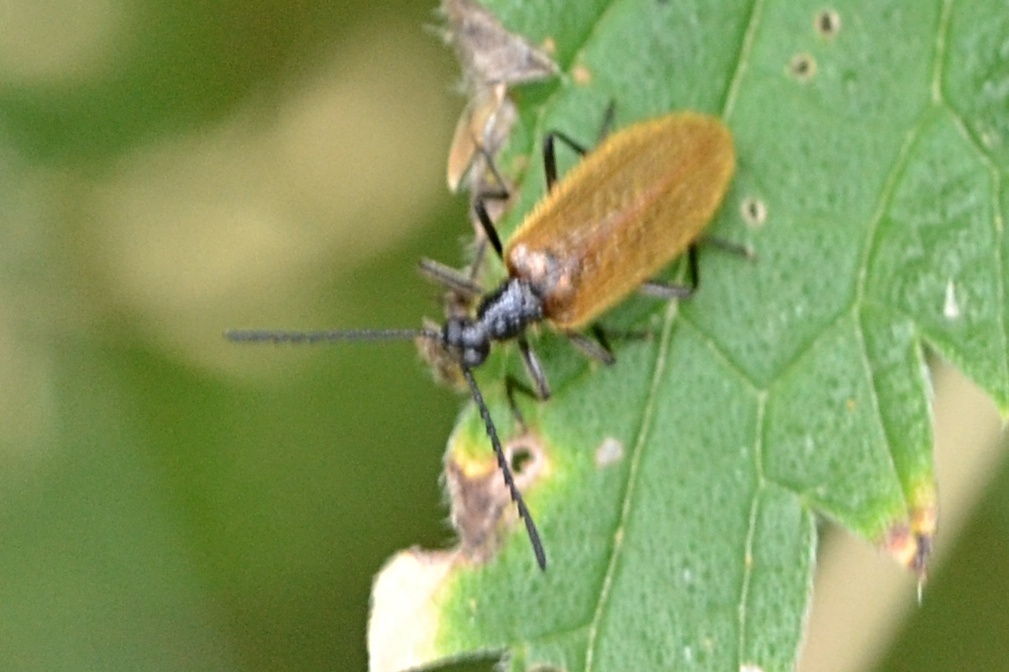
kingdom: Animalia
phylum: Arthropoda
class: Insecta
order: Coleoptera
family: Tenebrionidae
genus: Lagria
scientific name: Lagria hirta
